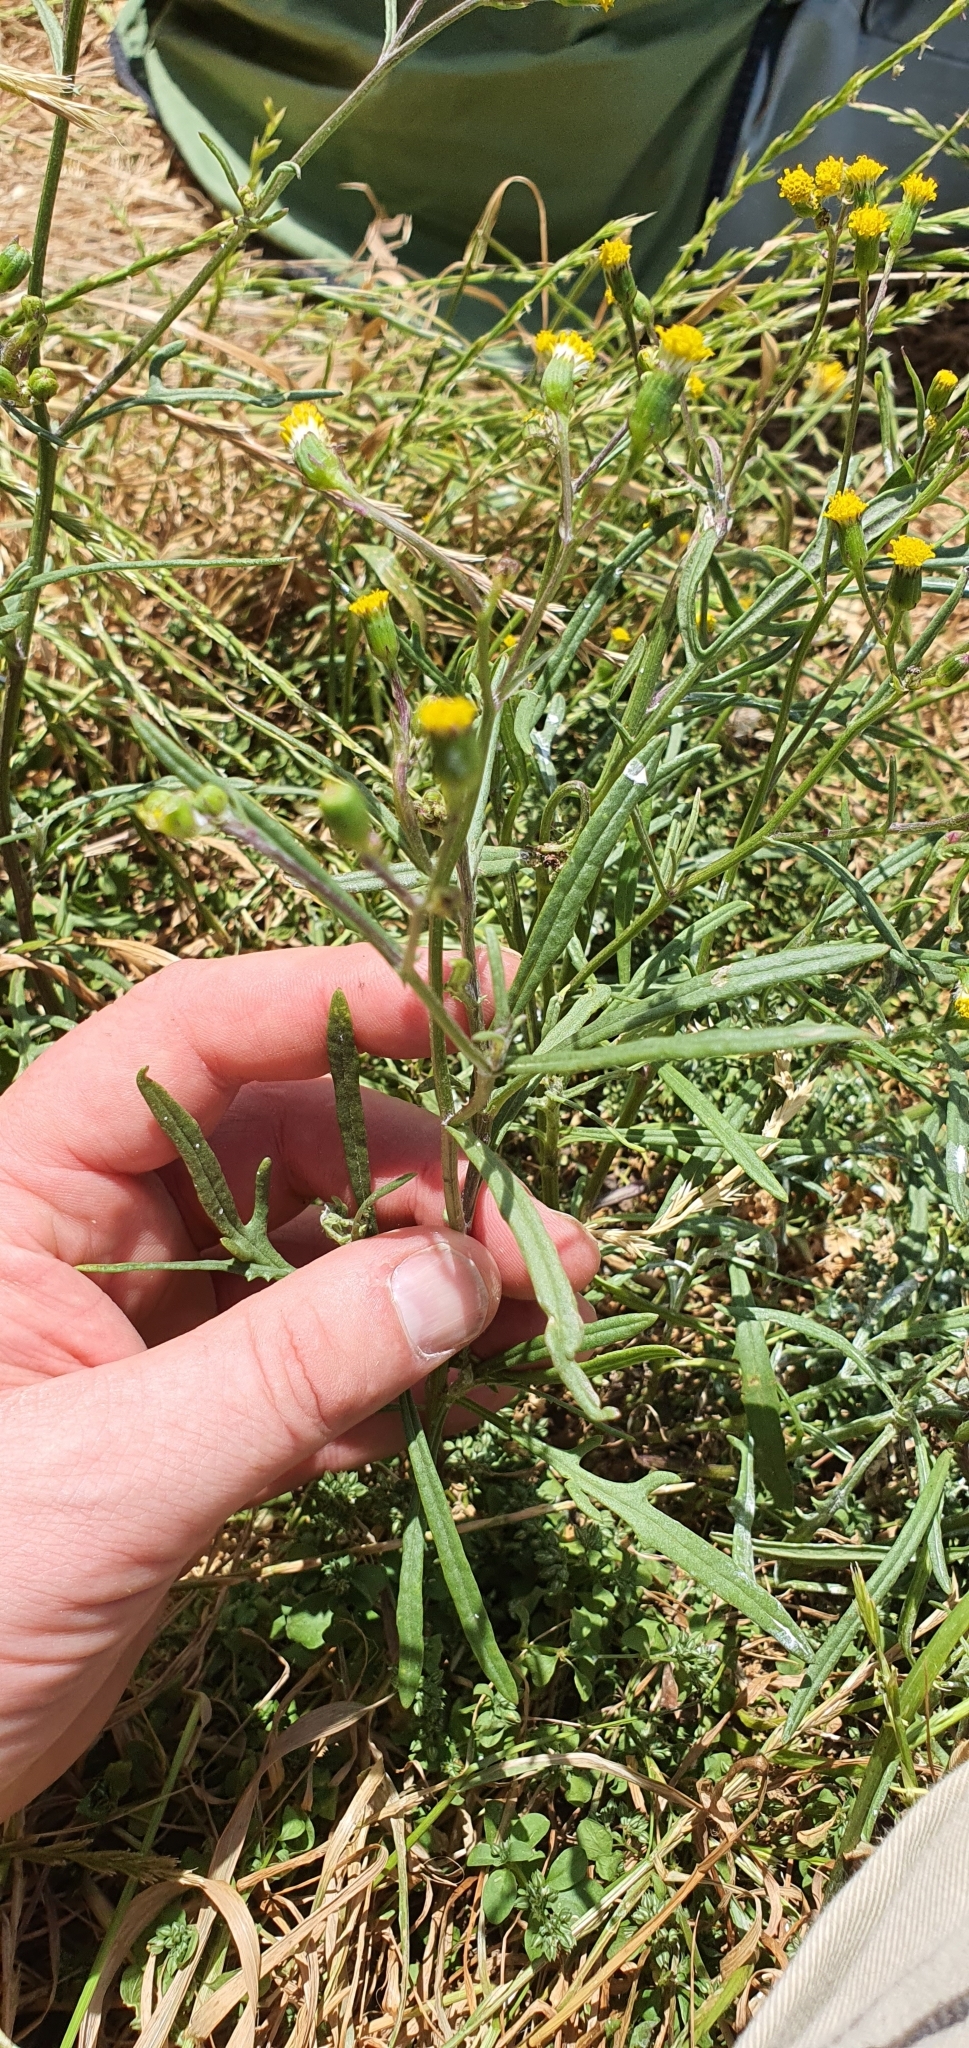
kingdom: Plantae
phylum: Tracheophyta
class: Magnoliopsida
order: Asterales
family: Asteraceae
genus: Senecio
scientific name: Senecio australis
